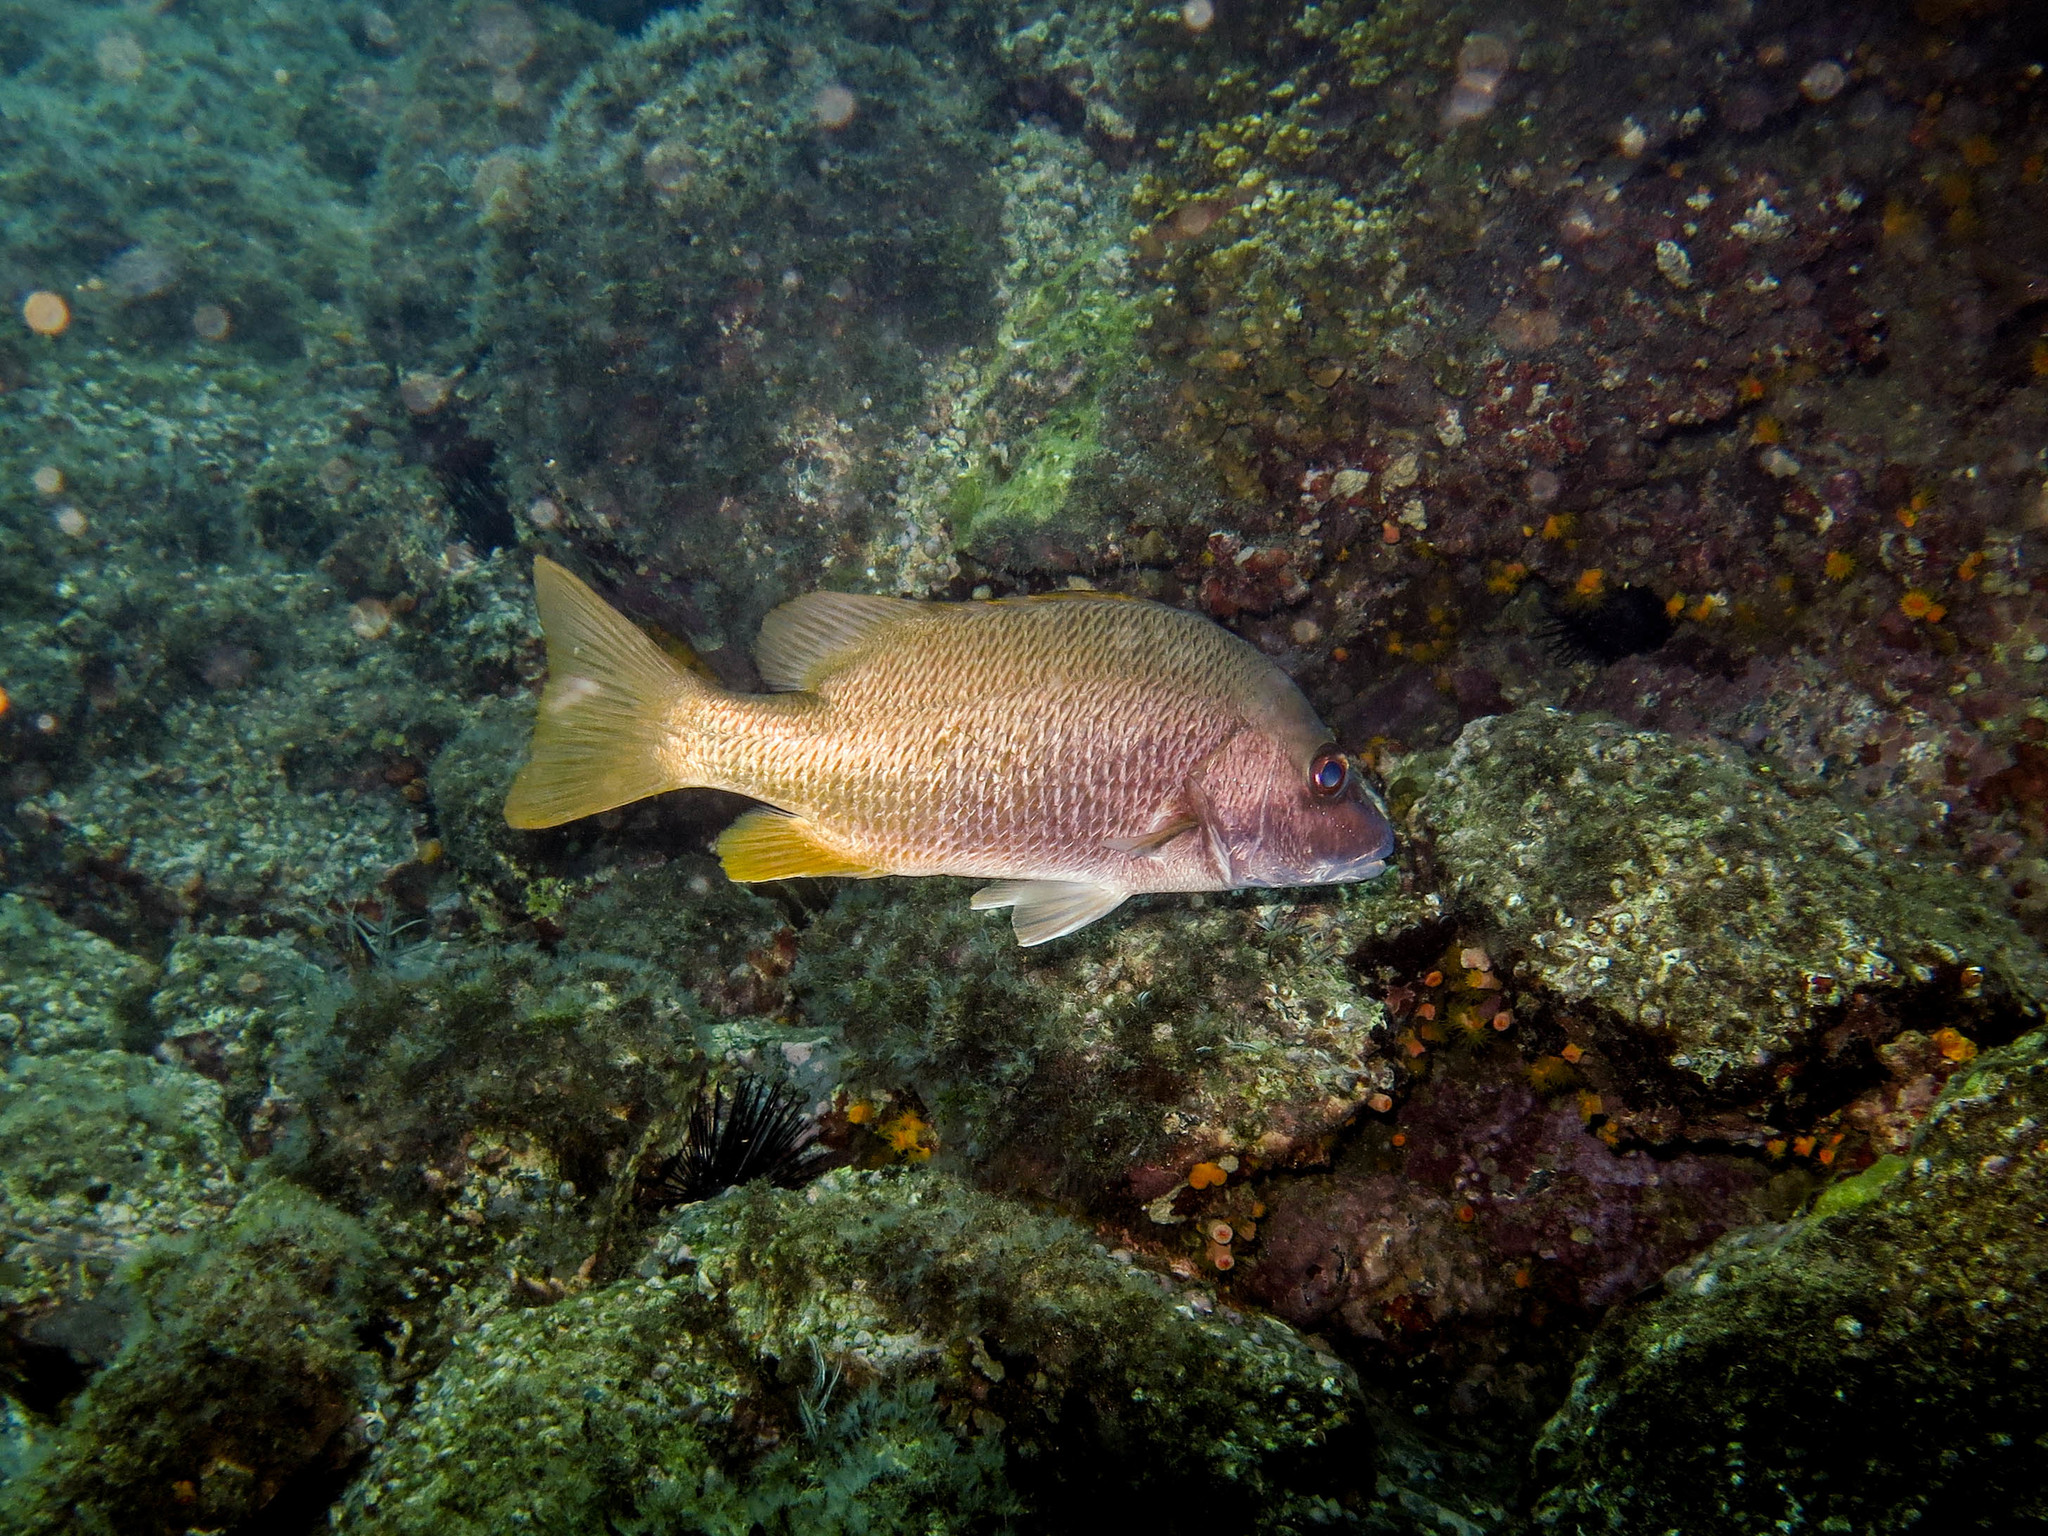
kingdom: Animalia
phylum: Chordata
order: Perciformes
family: Lutjanidae
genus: Lutjanus
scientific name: Lutjanus argentiventris
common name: Yellow snapper
